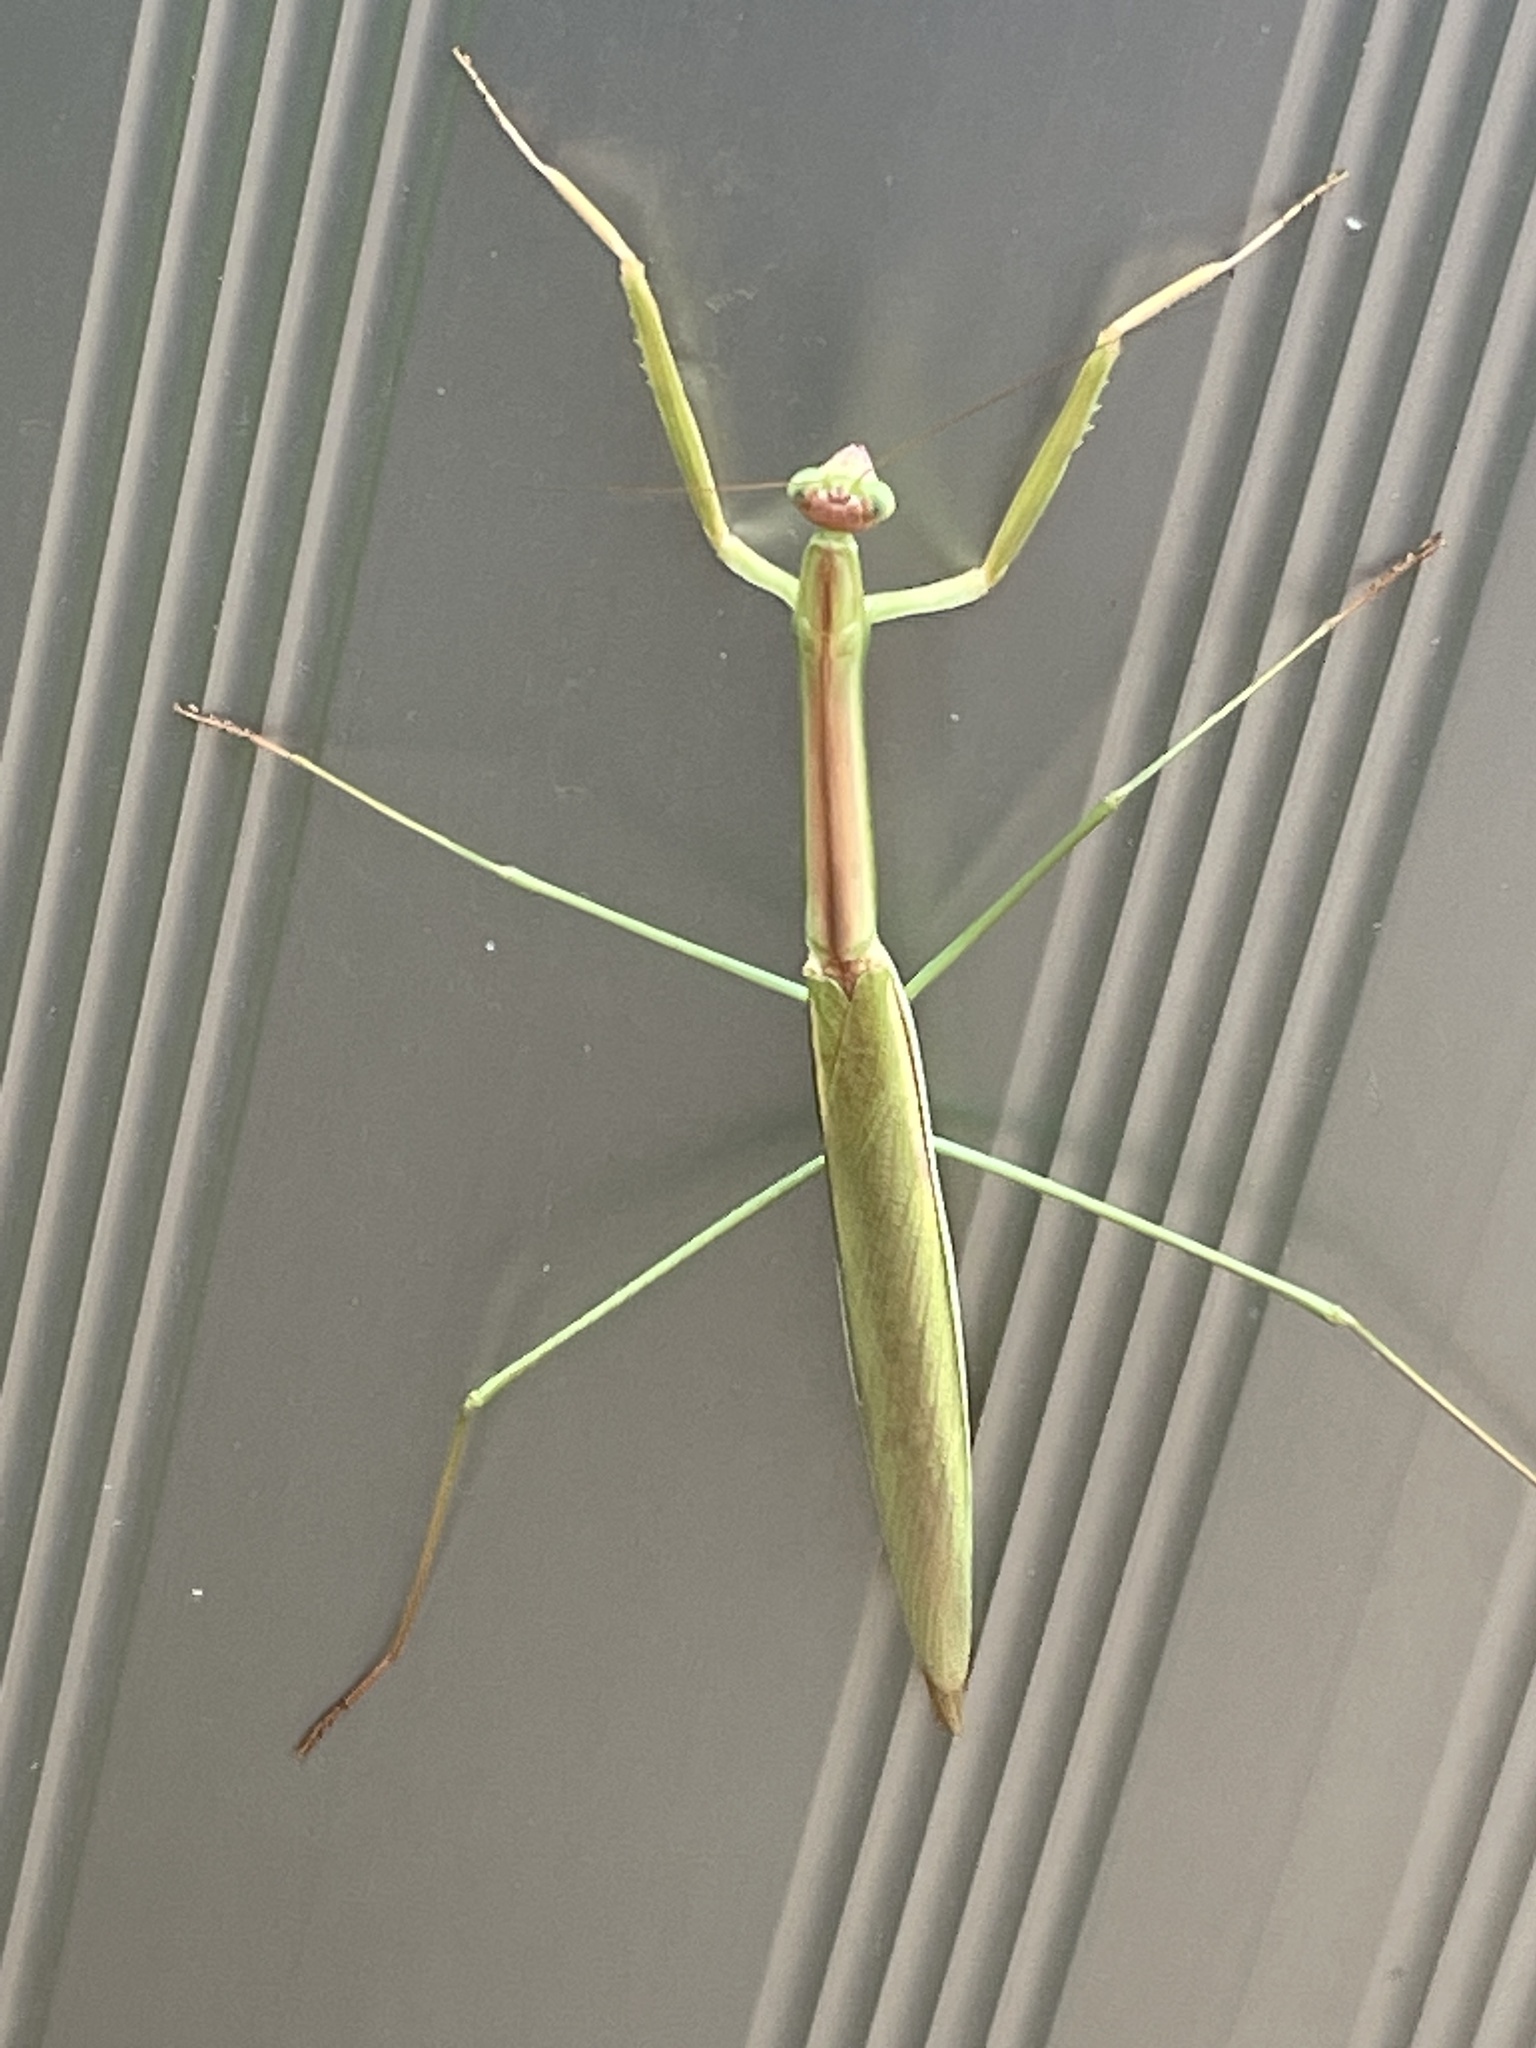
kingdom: Animalia
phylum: Arthropoda
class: Insecta
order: Mantodea
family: Mantidae
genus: Tenodera
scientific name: Tenodera
